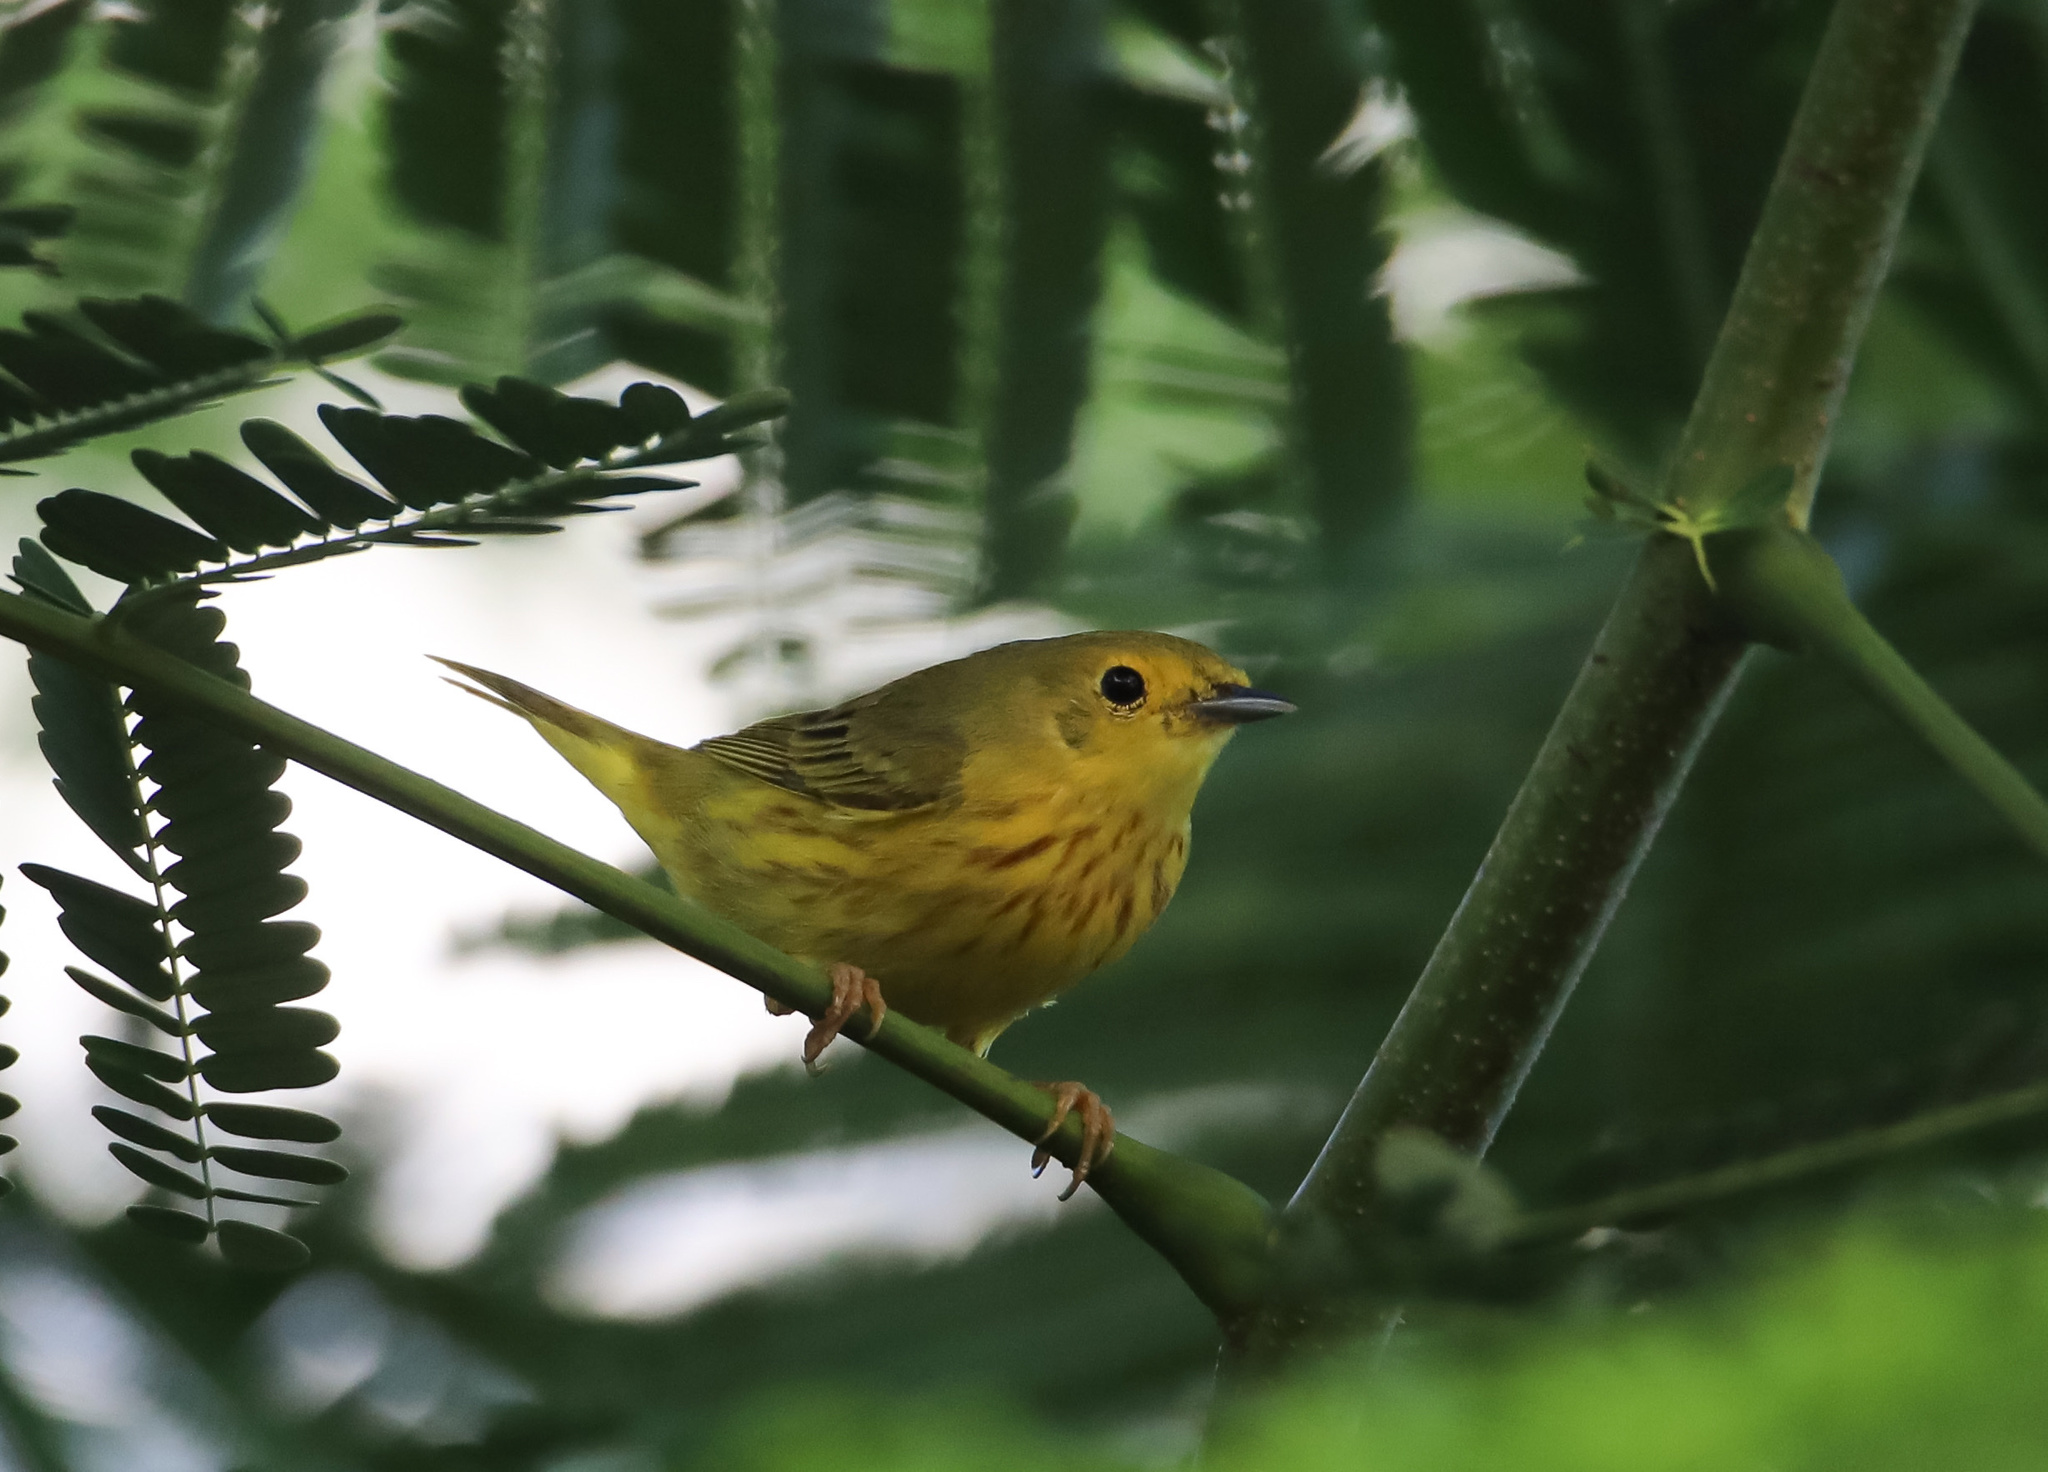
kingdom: Animalia
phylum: Chordata
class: Aves
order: Passeriformes
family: Parulidae
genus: Setophaga
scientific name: Setophaga petechia
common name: Yellow warbler
